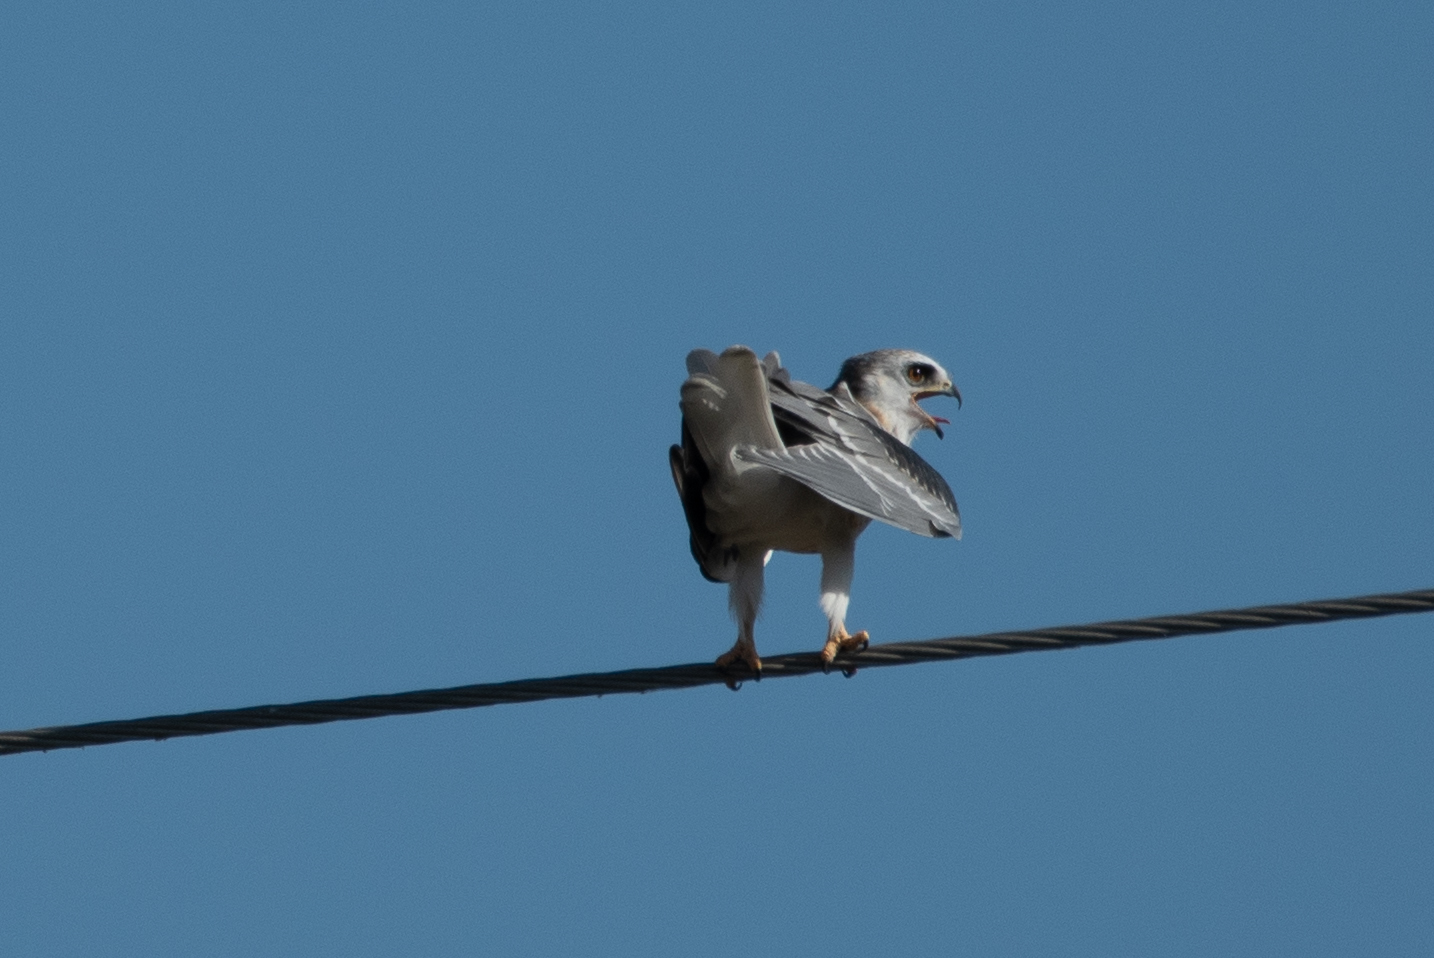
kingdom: Animalia
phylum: Chordata
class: Aves
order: Accipitriformes
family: Accipitridae
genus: Elanus
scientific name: Elanus leucurus
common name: White-tailed kite
